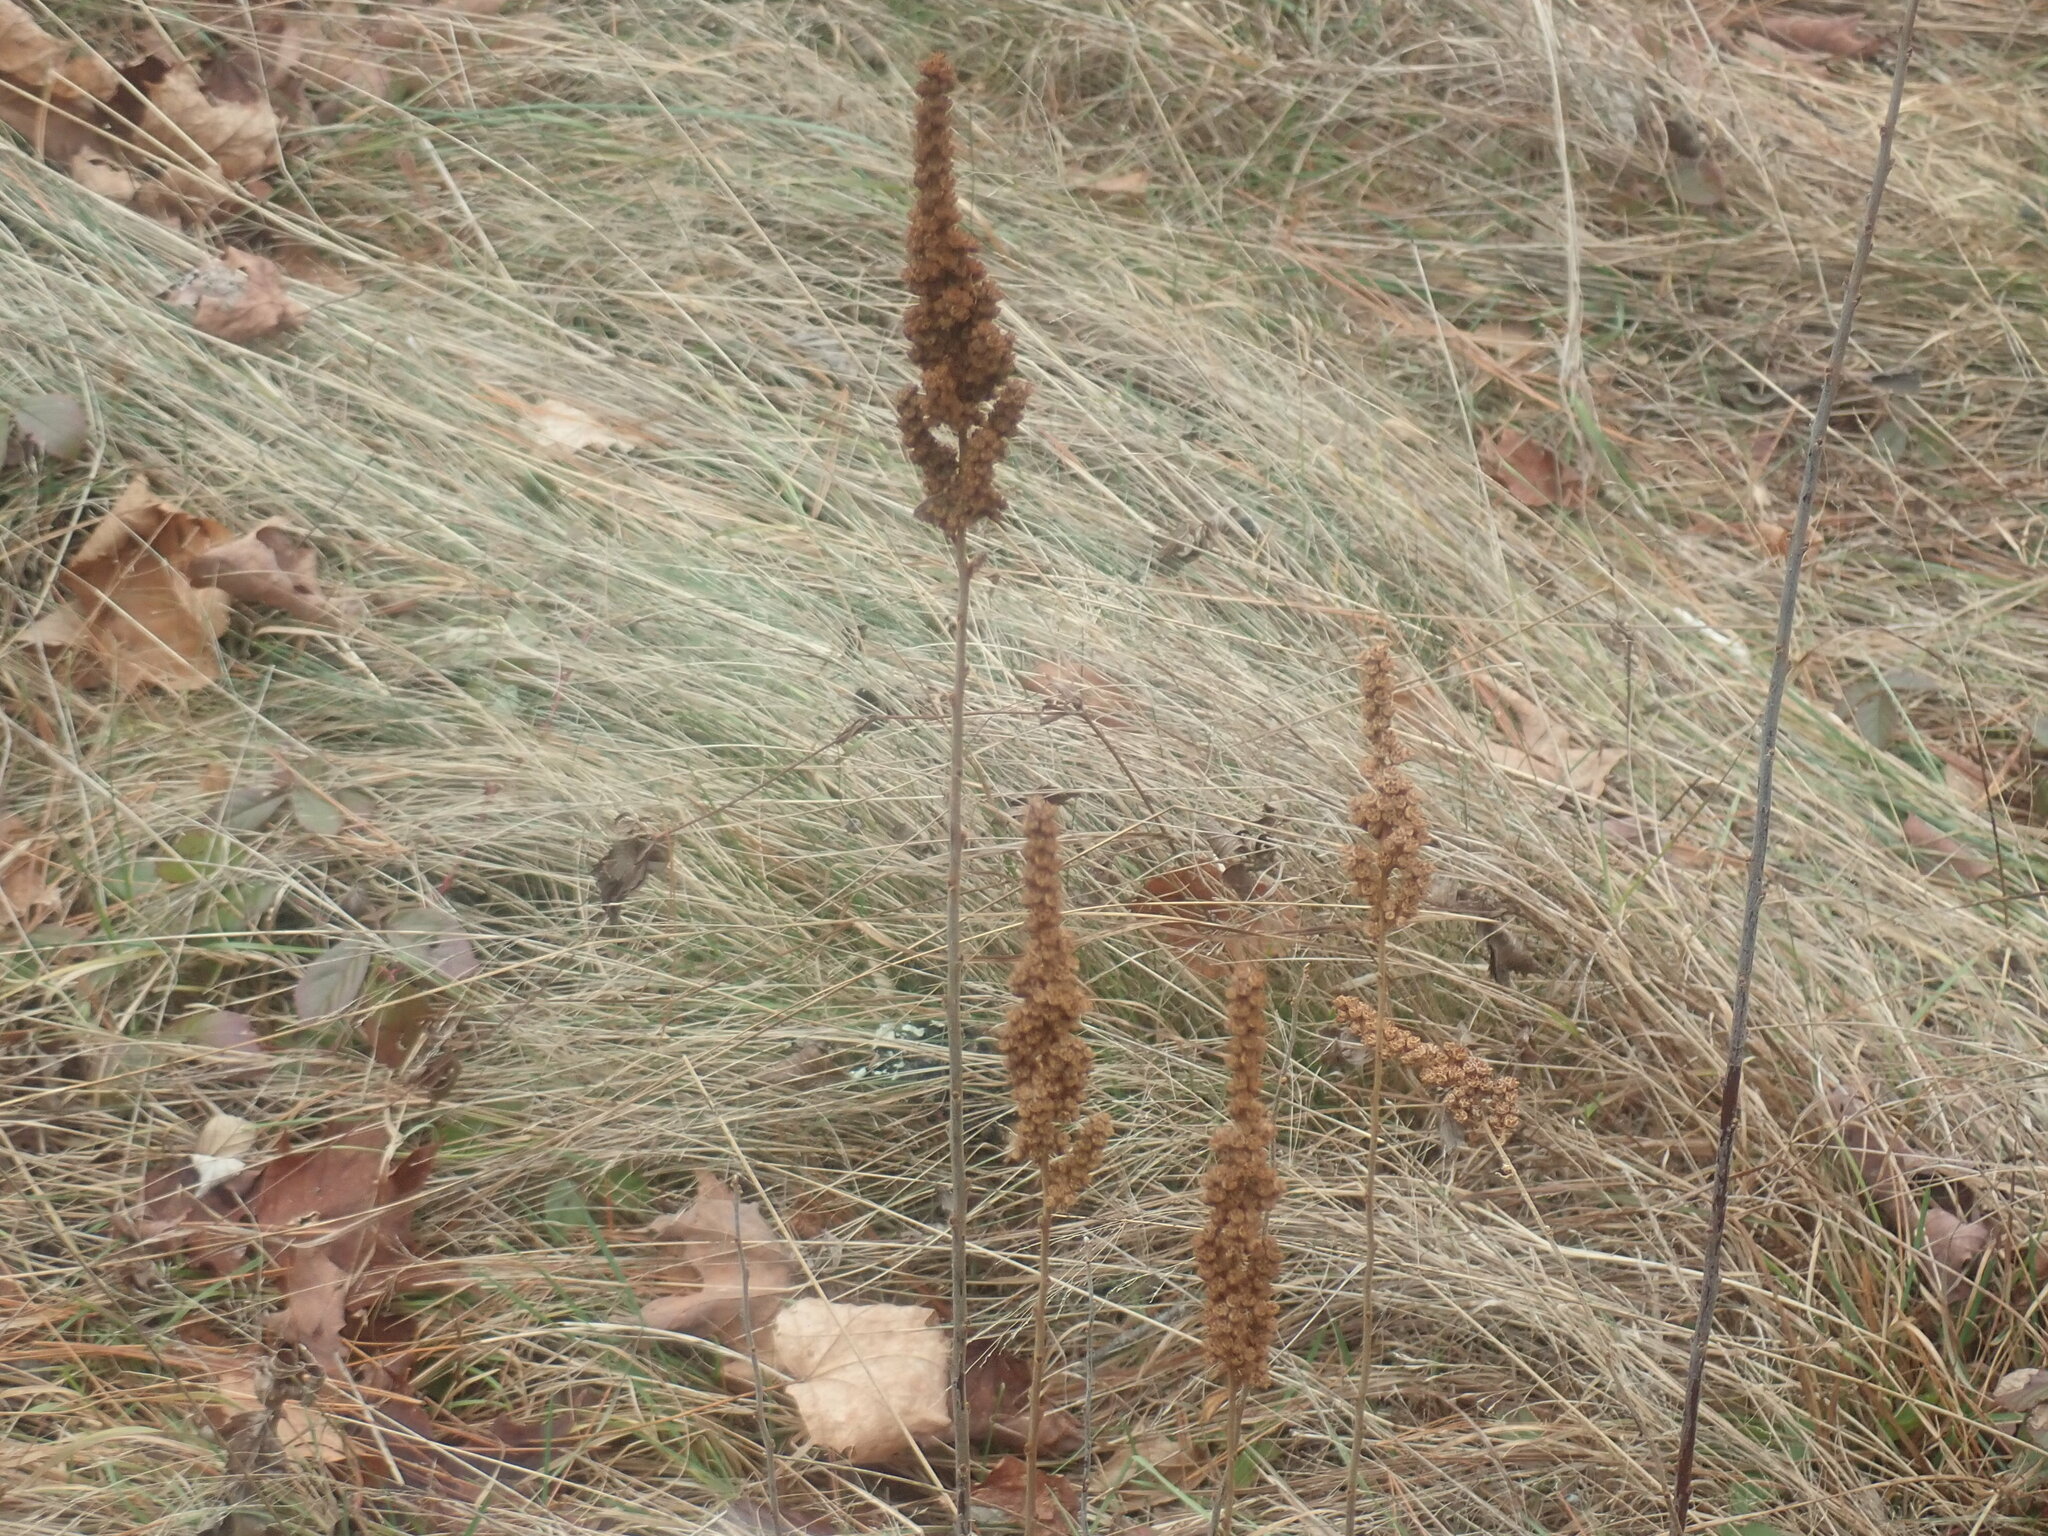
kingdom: Plantae
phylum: Tracheophyta
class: Magnoliopsida
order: Rosales
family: Rosaceae
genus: Spiraea
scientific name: Spiraea tomentosa
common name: Hardhack
